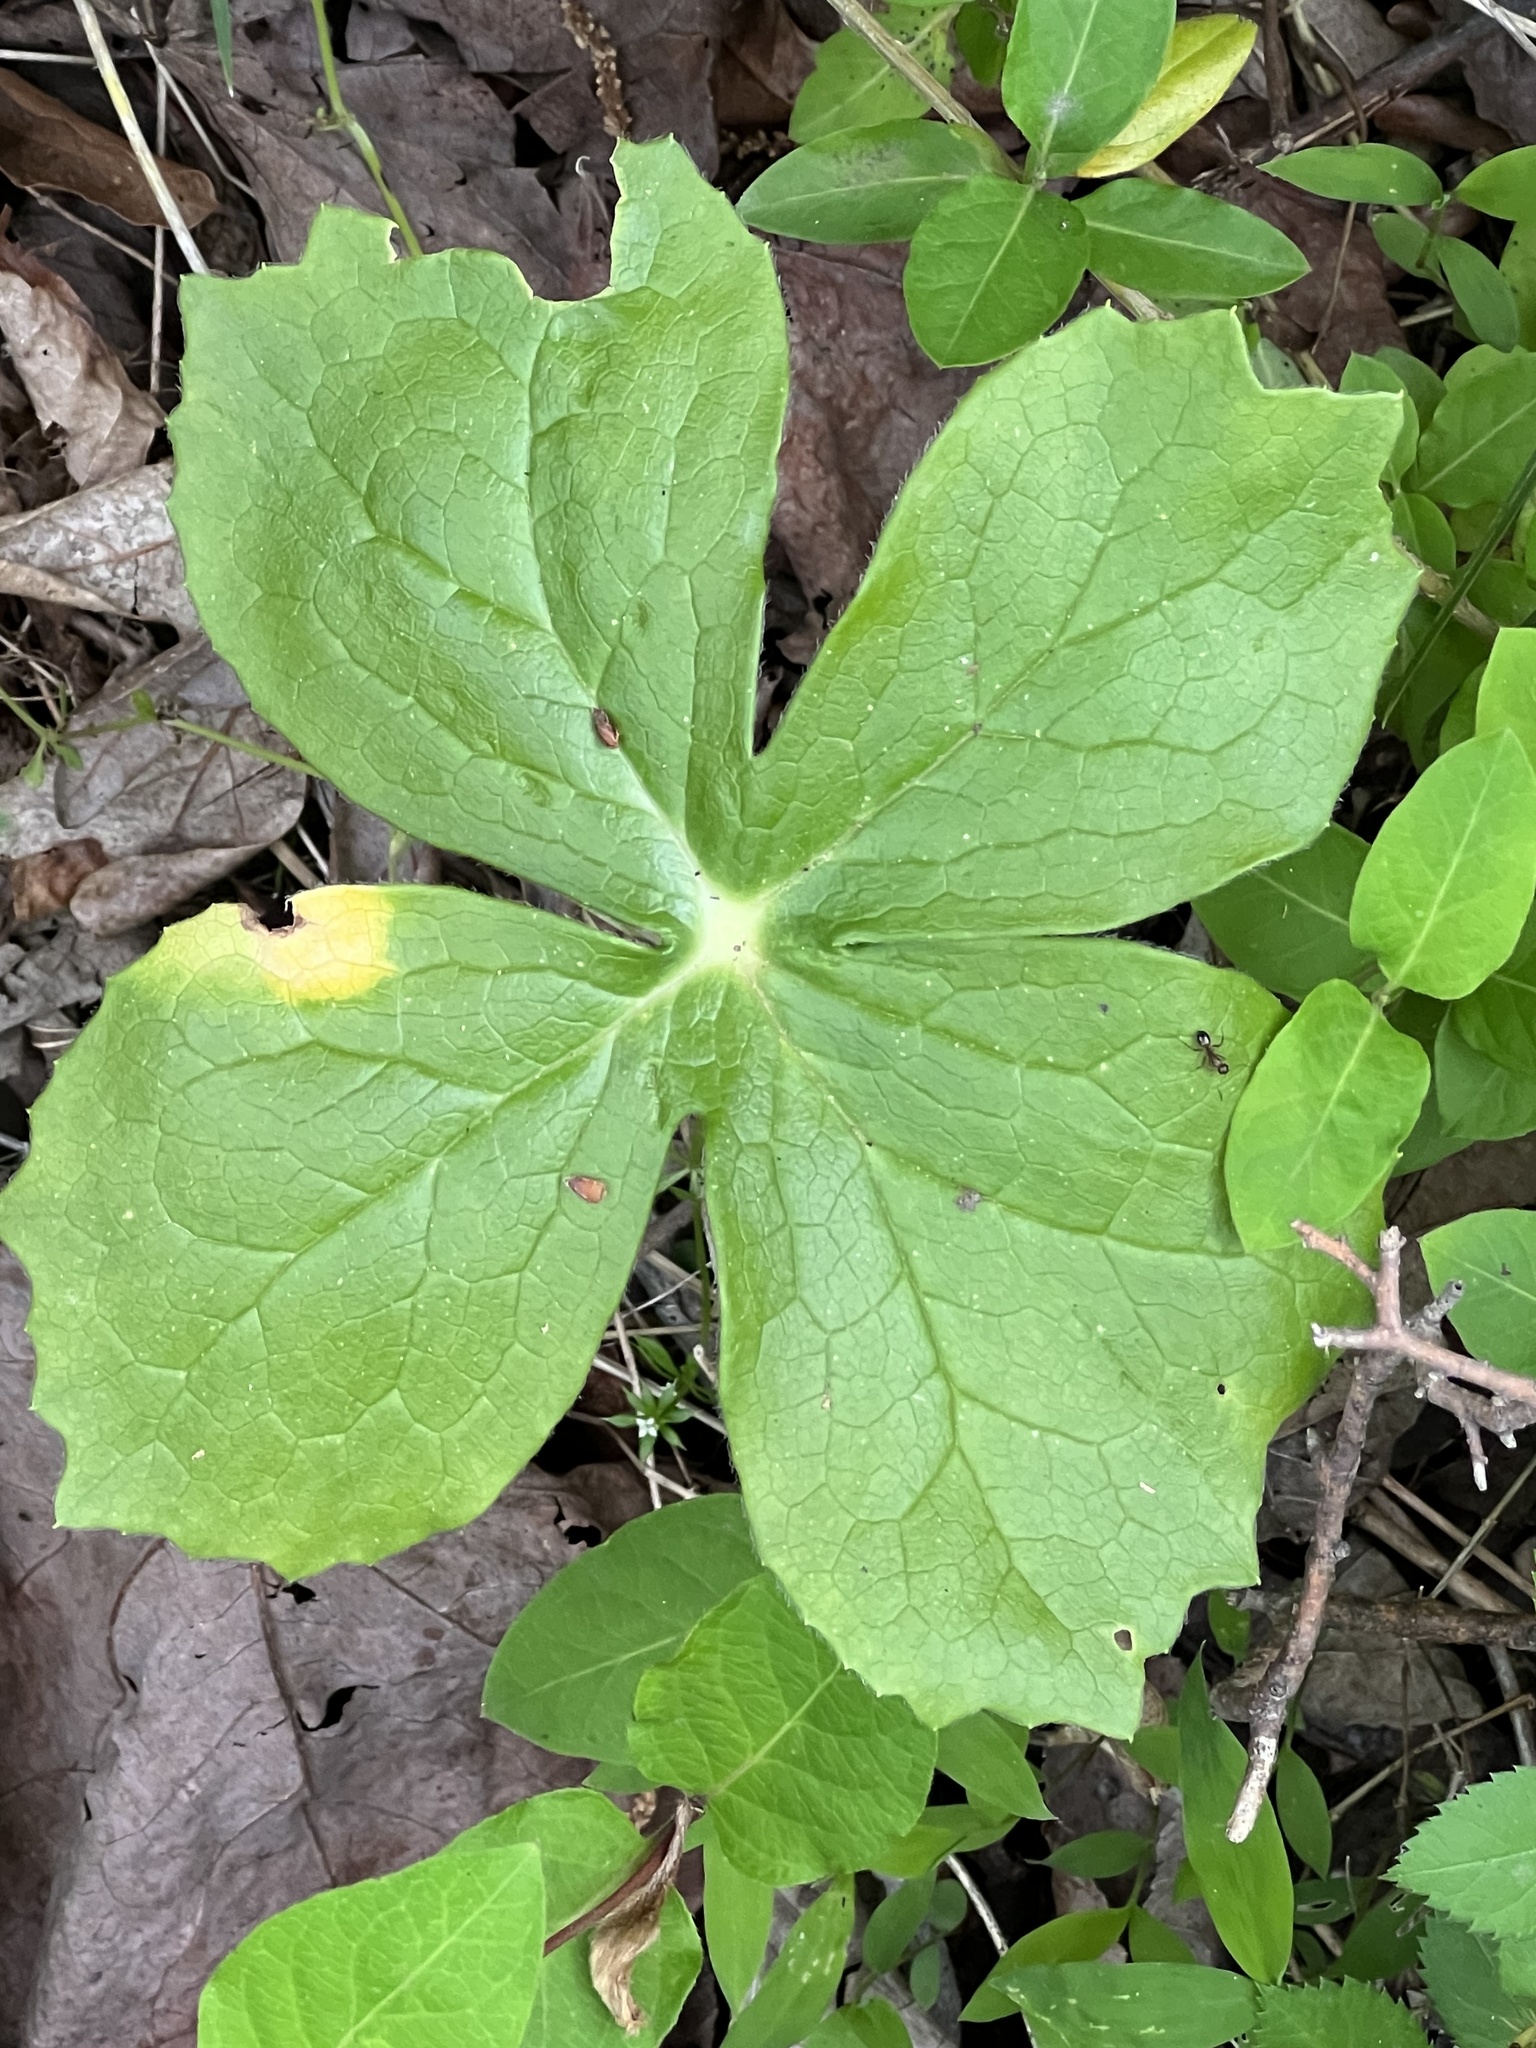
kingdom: Fungi
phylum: Basidiomycota
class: Pucciniomycetes
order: Pucciniales
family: Pucciniaceae
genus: Puccinia
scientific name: Puccinia podophylli
